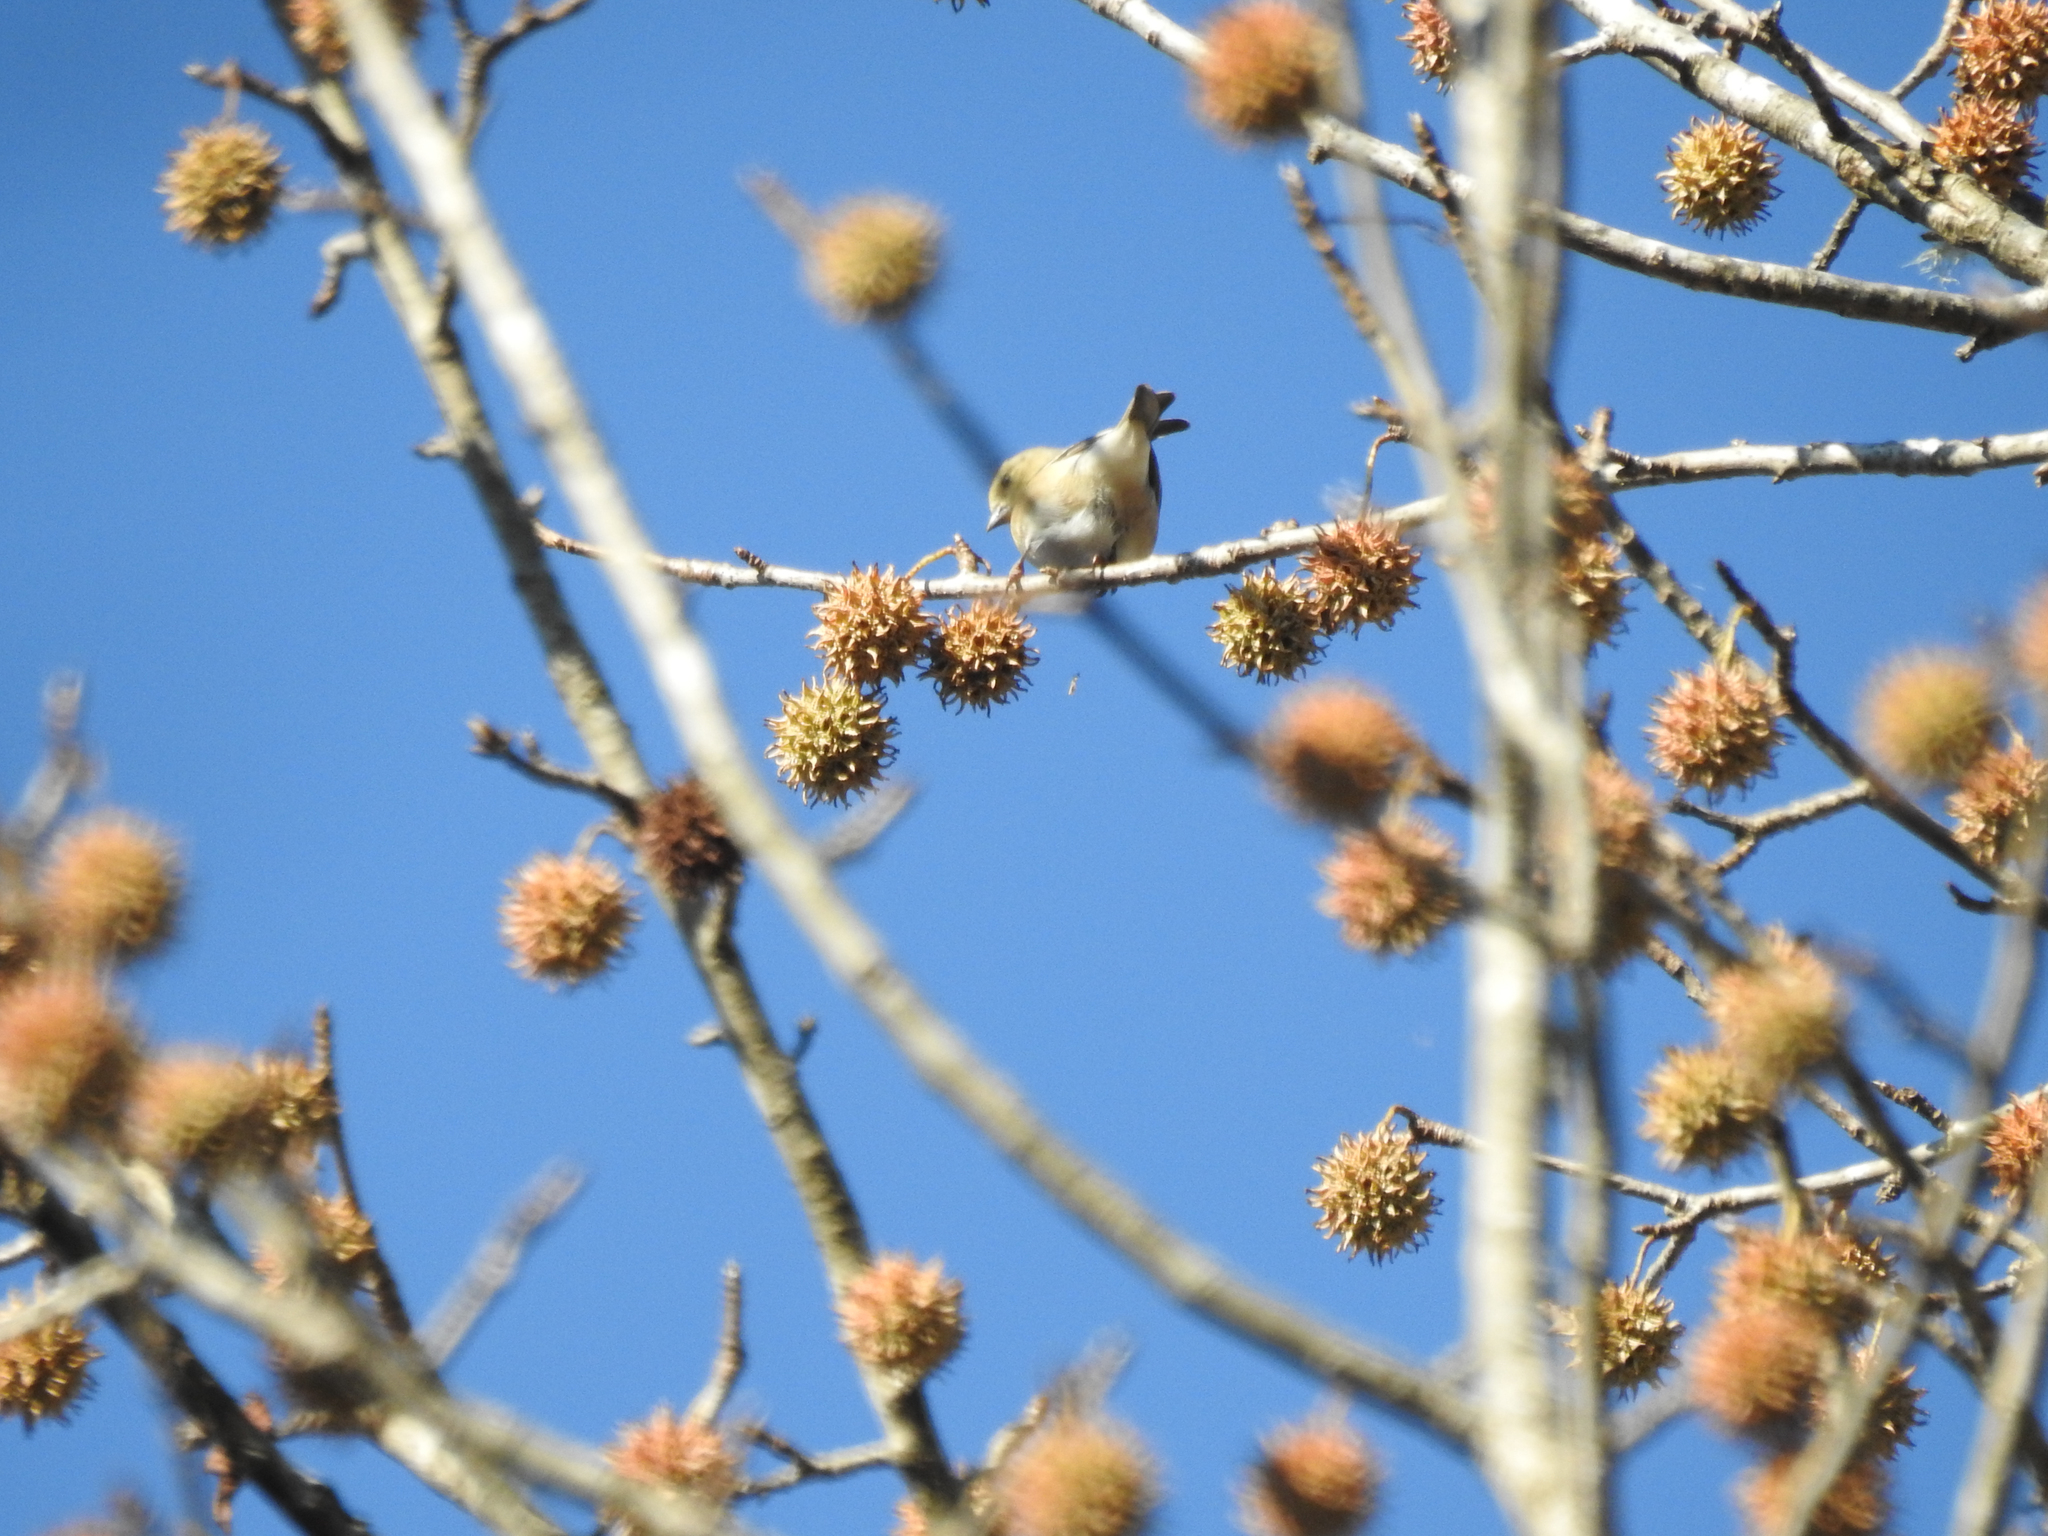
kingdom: Animalia
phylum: Chordata
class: Aves
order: Passeriformes
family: Fringillidae
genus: Spinus
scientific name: Spinus tristis
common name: American goldfinch
